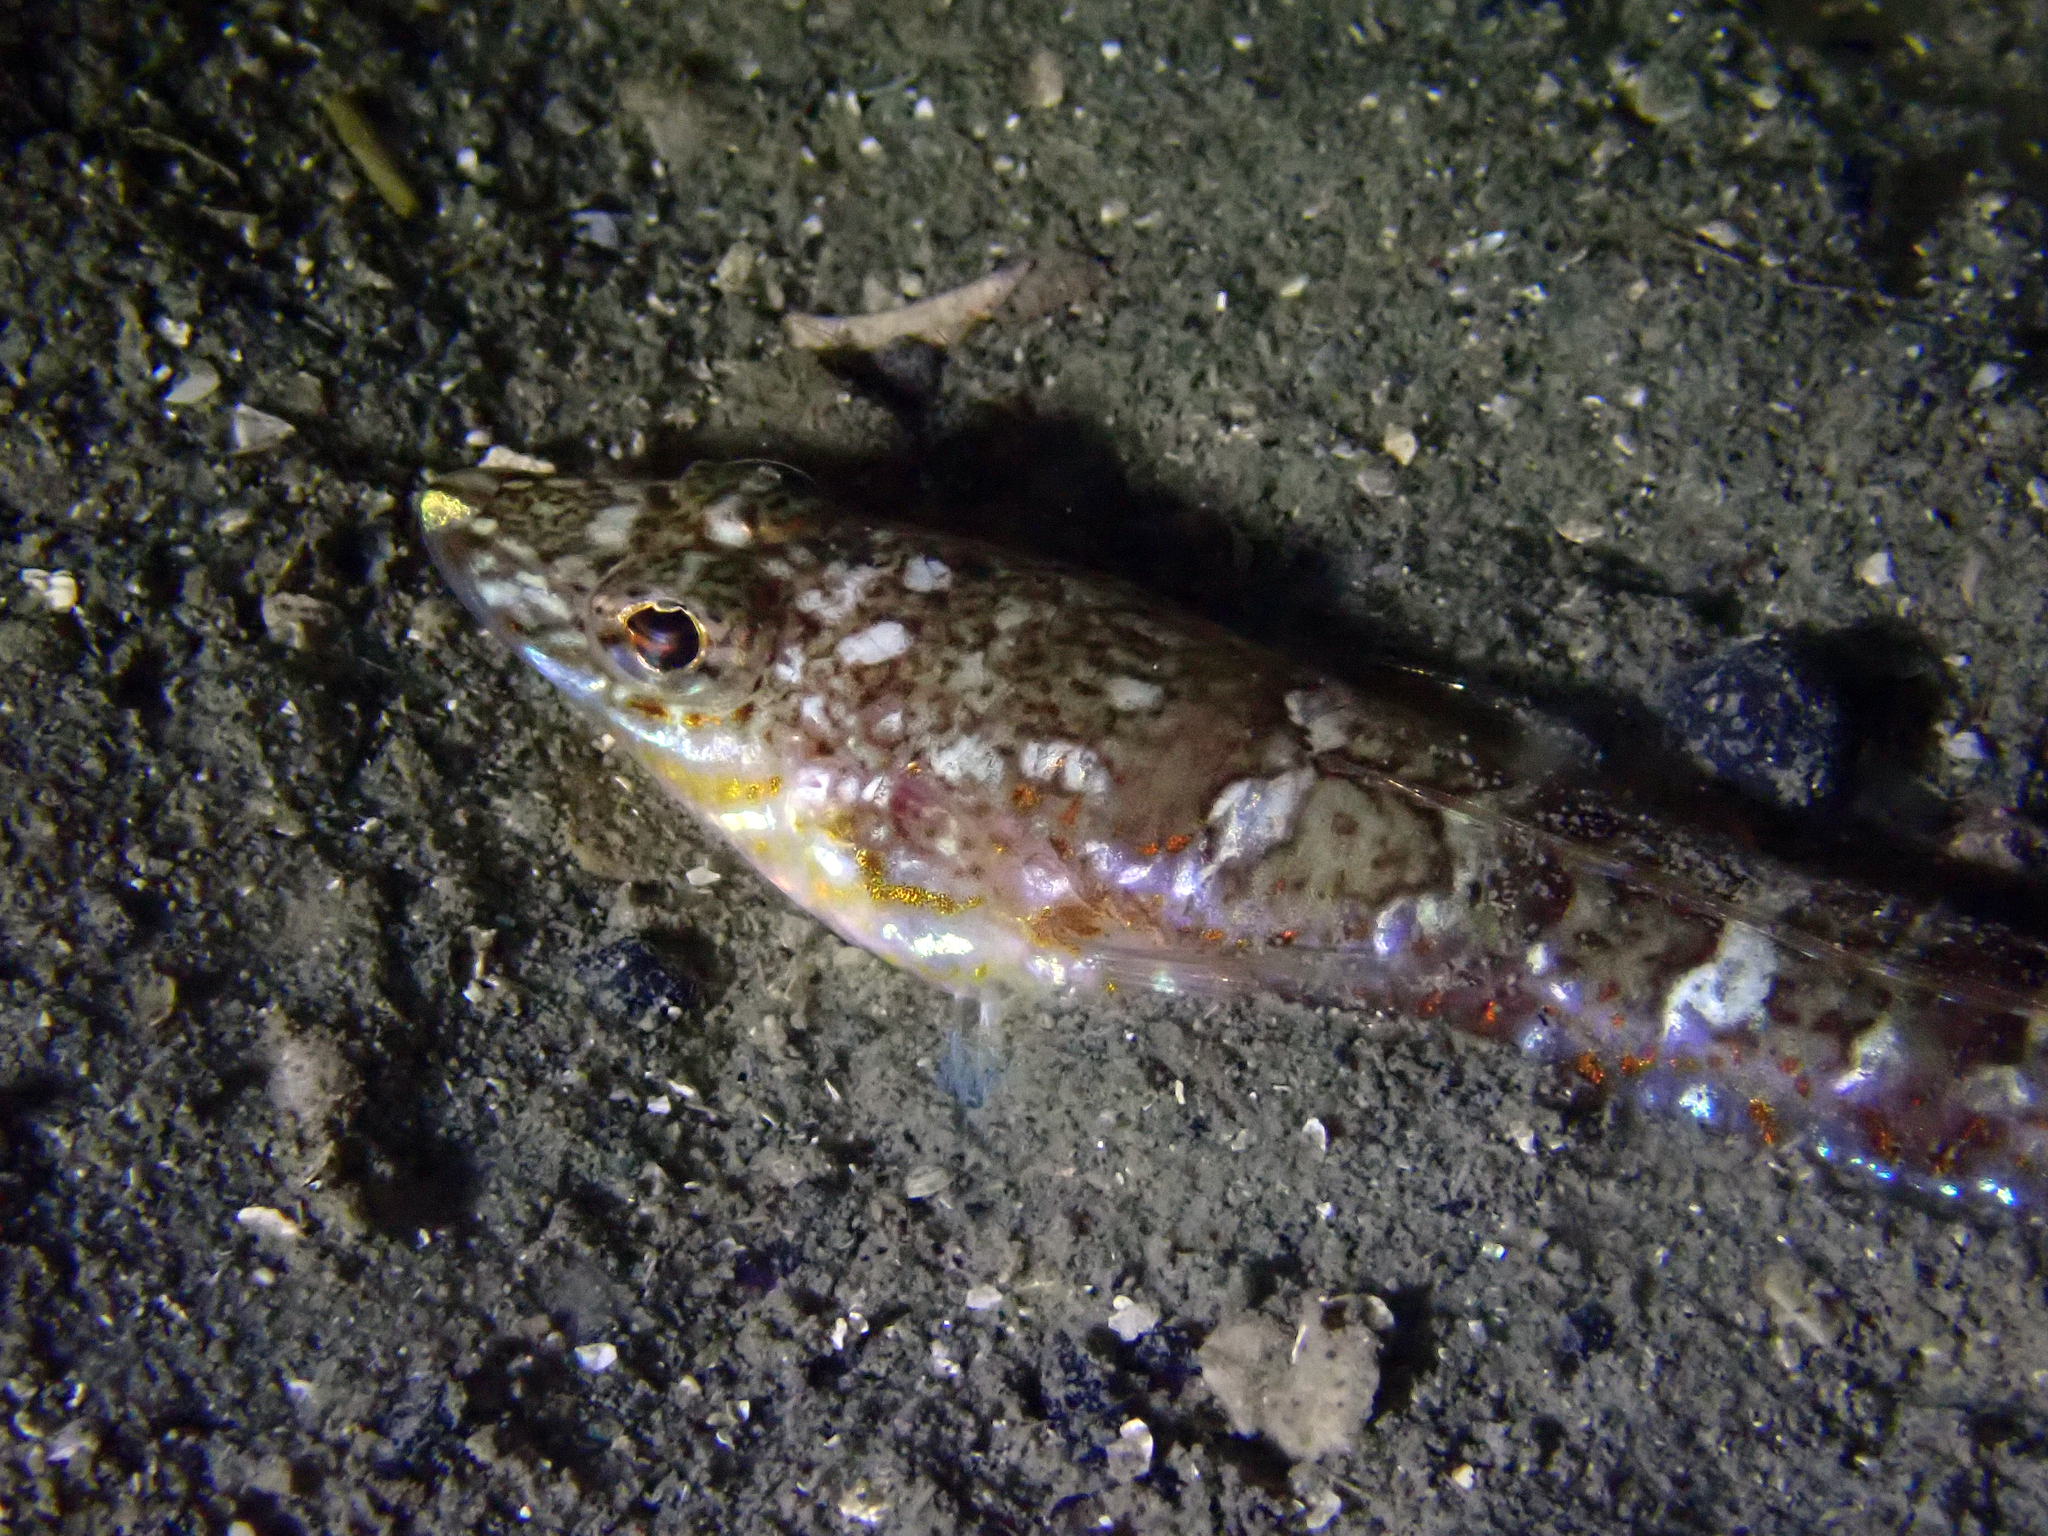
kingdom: Animalia
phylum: Chordata
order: Perciformes
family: Percophidae
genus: Hemerocoetes
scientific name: Hemerocoetes monopterygius
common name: Opalfish
